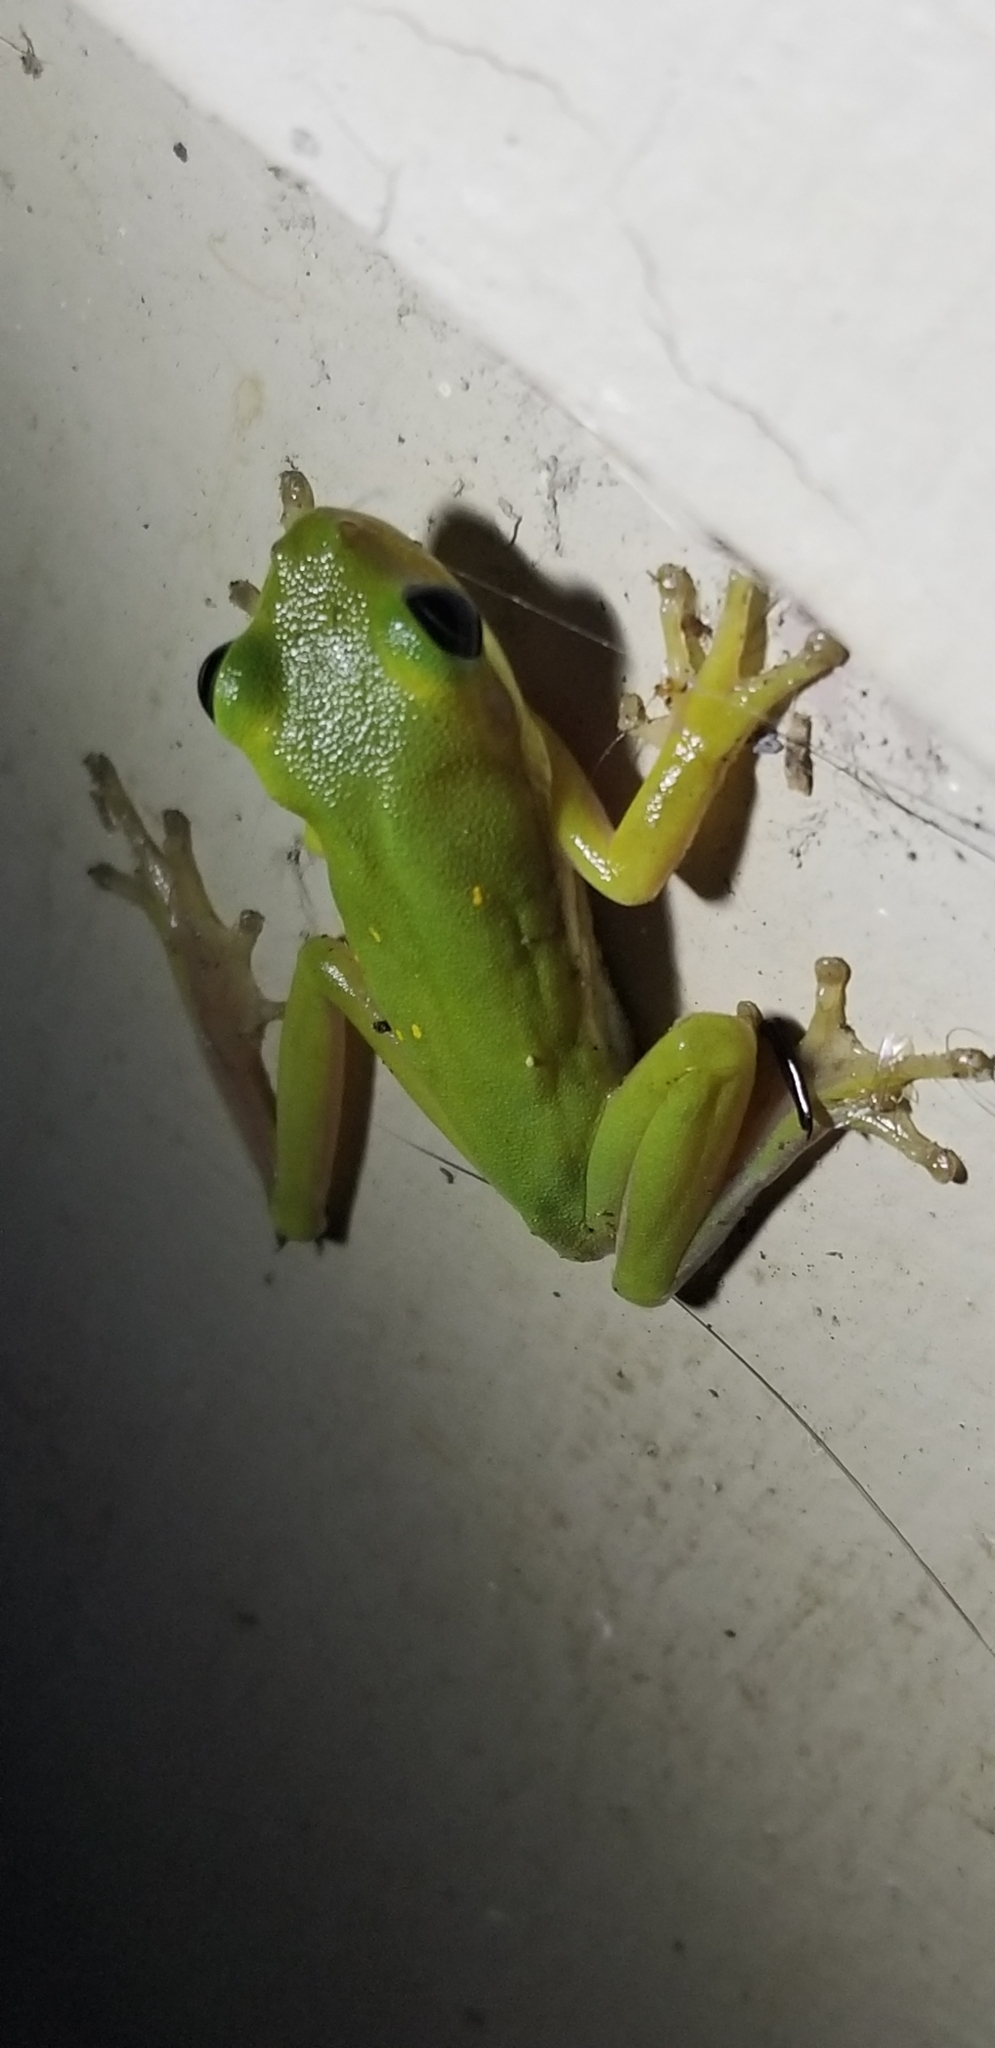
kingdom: Animalia
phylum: Chordata
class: Amphibia
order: Anura
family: Hylidae
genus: Dryophytes
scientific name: Dryophytes cinereus
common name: Green treefrog
